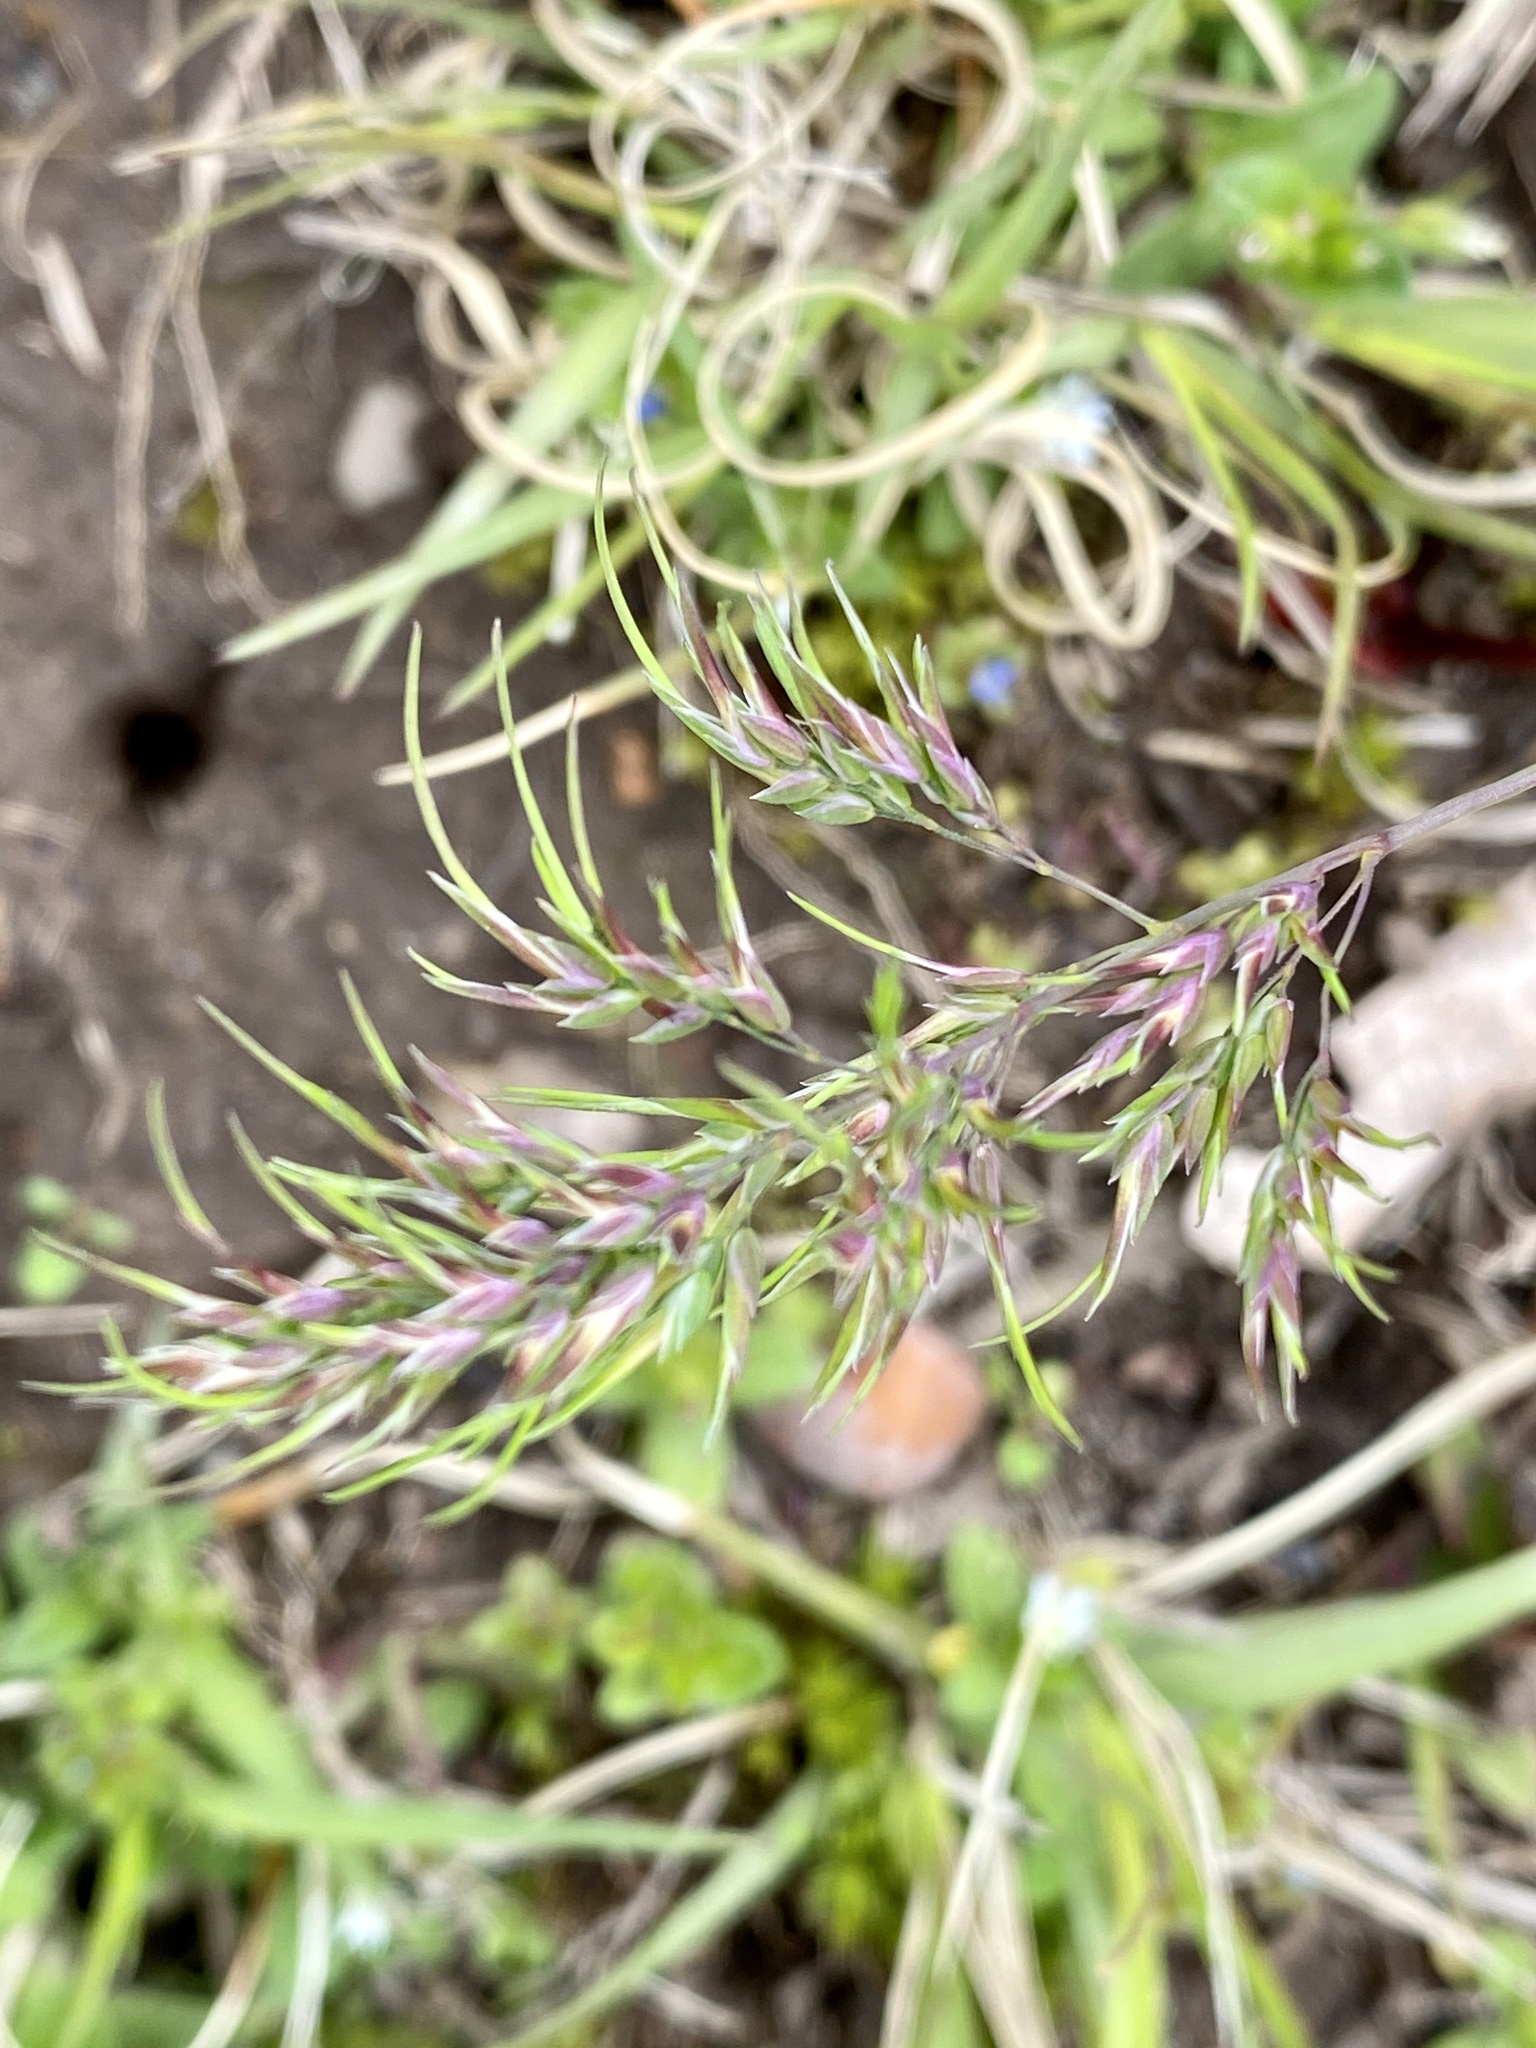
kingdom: Plantae
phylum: Tracheophyta
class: Liliopsida
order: Poales
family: Poaceae
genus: Poa
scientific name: Poa bulbosa
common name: Bulbous bluegrass
